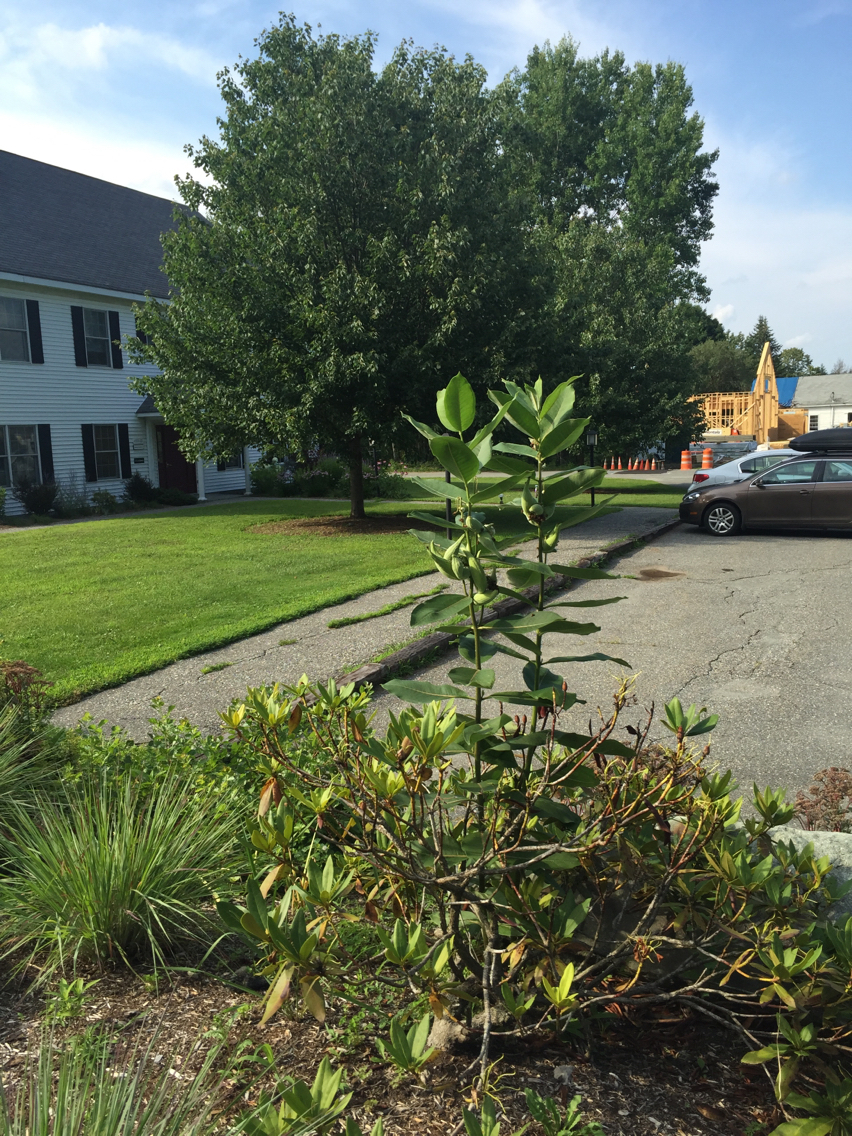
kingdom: Plantae
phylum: Tracheophyta
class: Magnoliopsida
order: Gentianales
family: Apocynaceae
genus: Asclepias
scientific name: Asclepias syriaca
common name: Common milkweed
